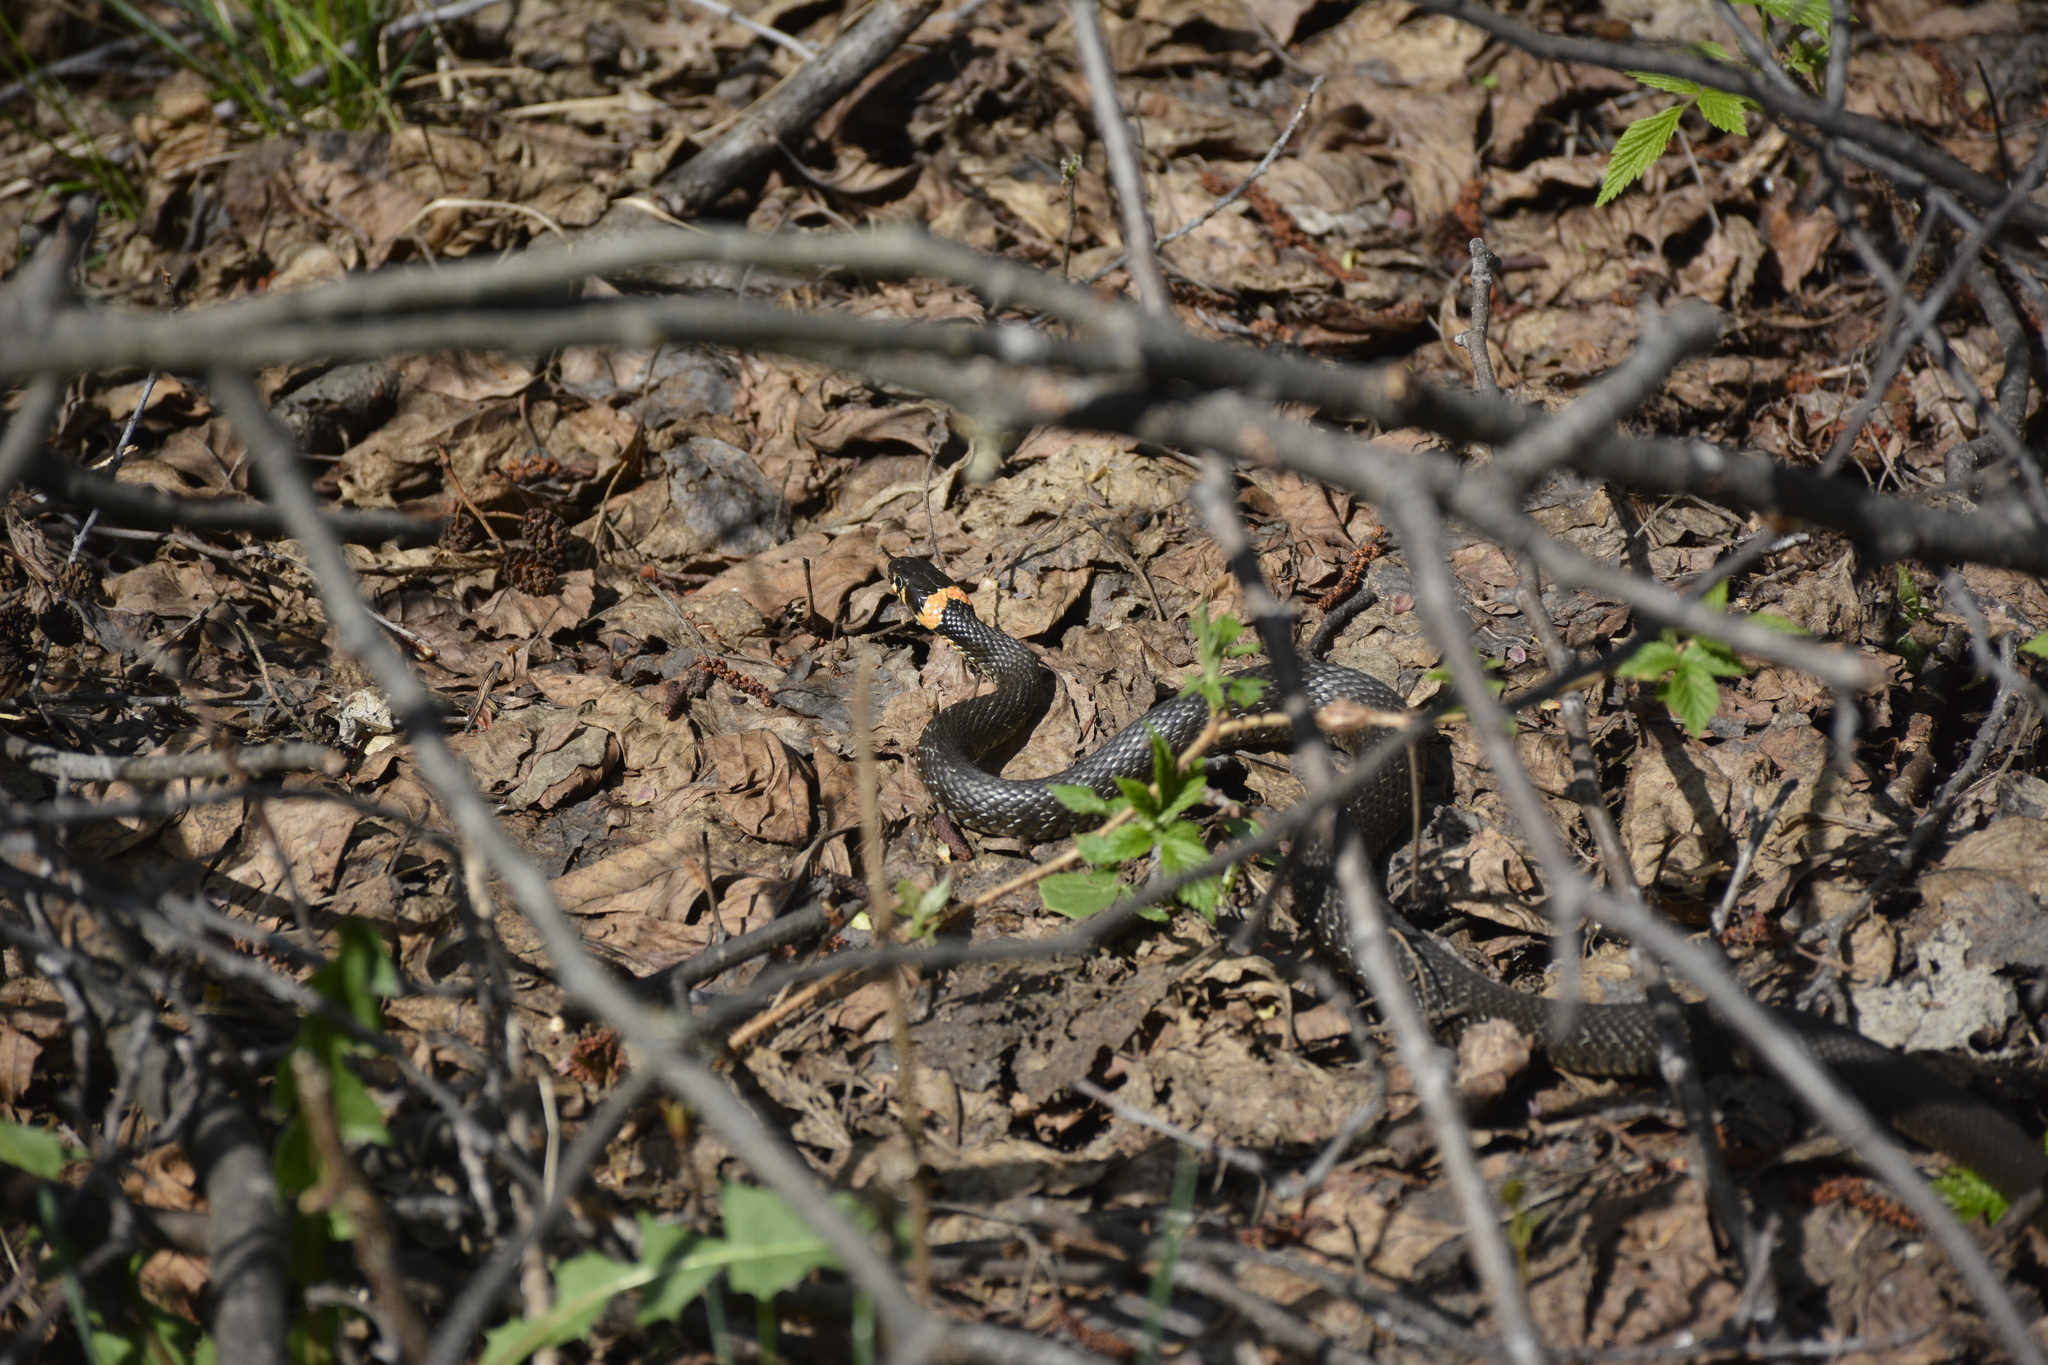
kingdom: Animalia
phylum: Chordata
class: Squamata
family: Colubridae
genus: Natrix
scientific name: Natrix natrix
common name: Grass snake
